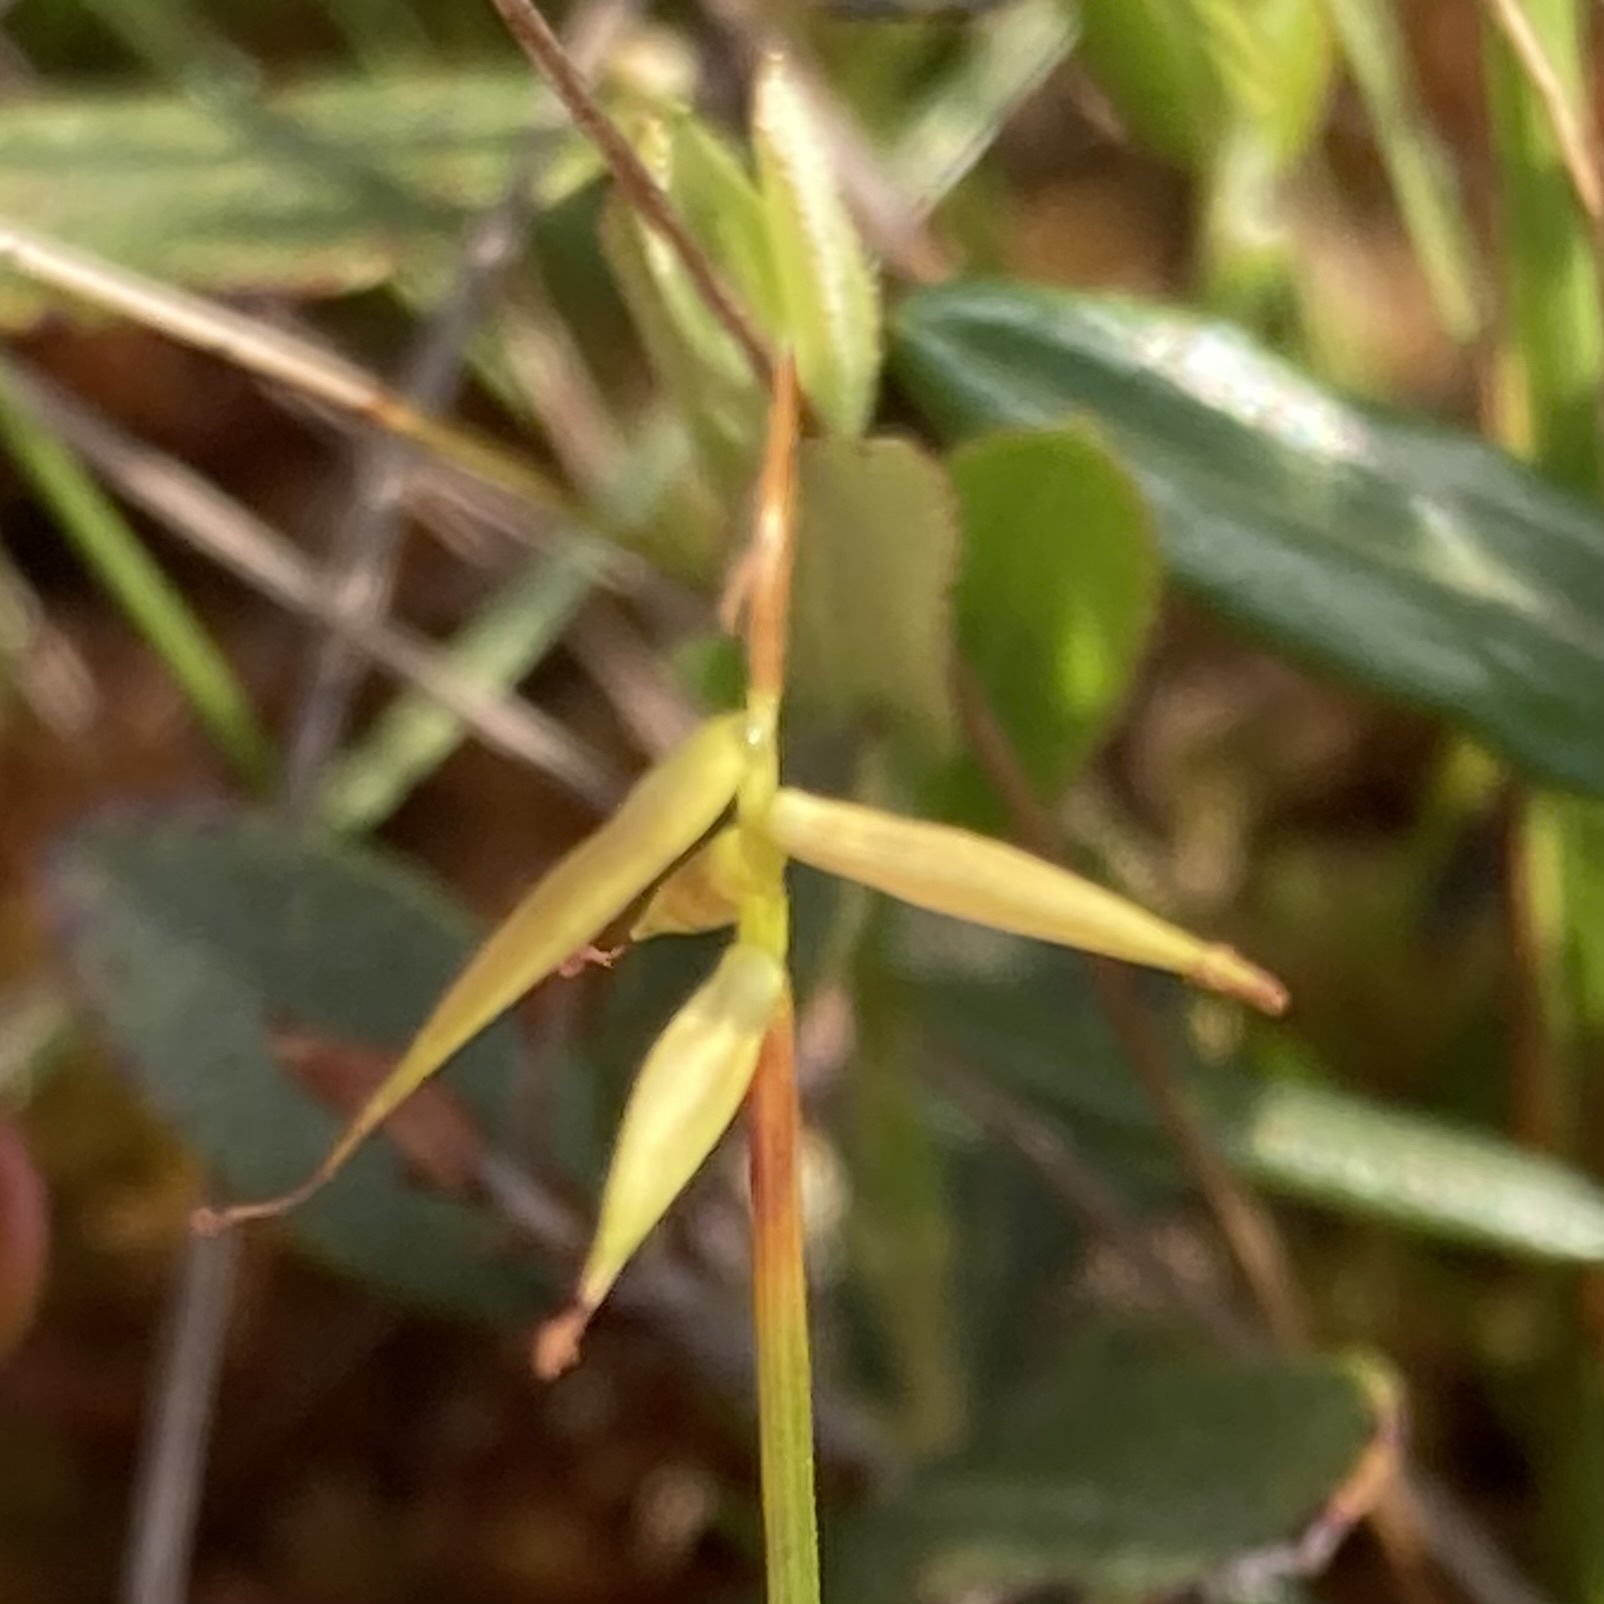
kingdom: Plantae
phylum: Tracheophyta
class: Liliopsida
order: Poales
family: Cyperaceae
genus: Carex
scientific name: Carex pauciflora
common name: Few-flowered sedge
